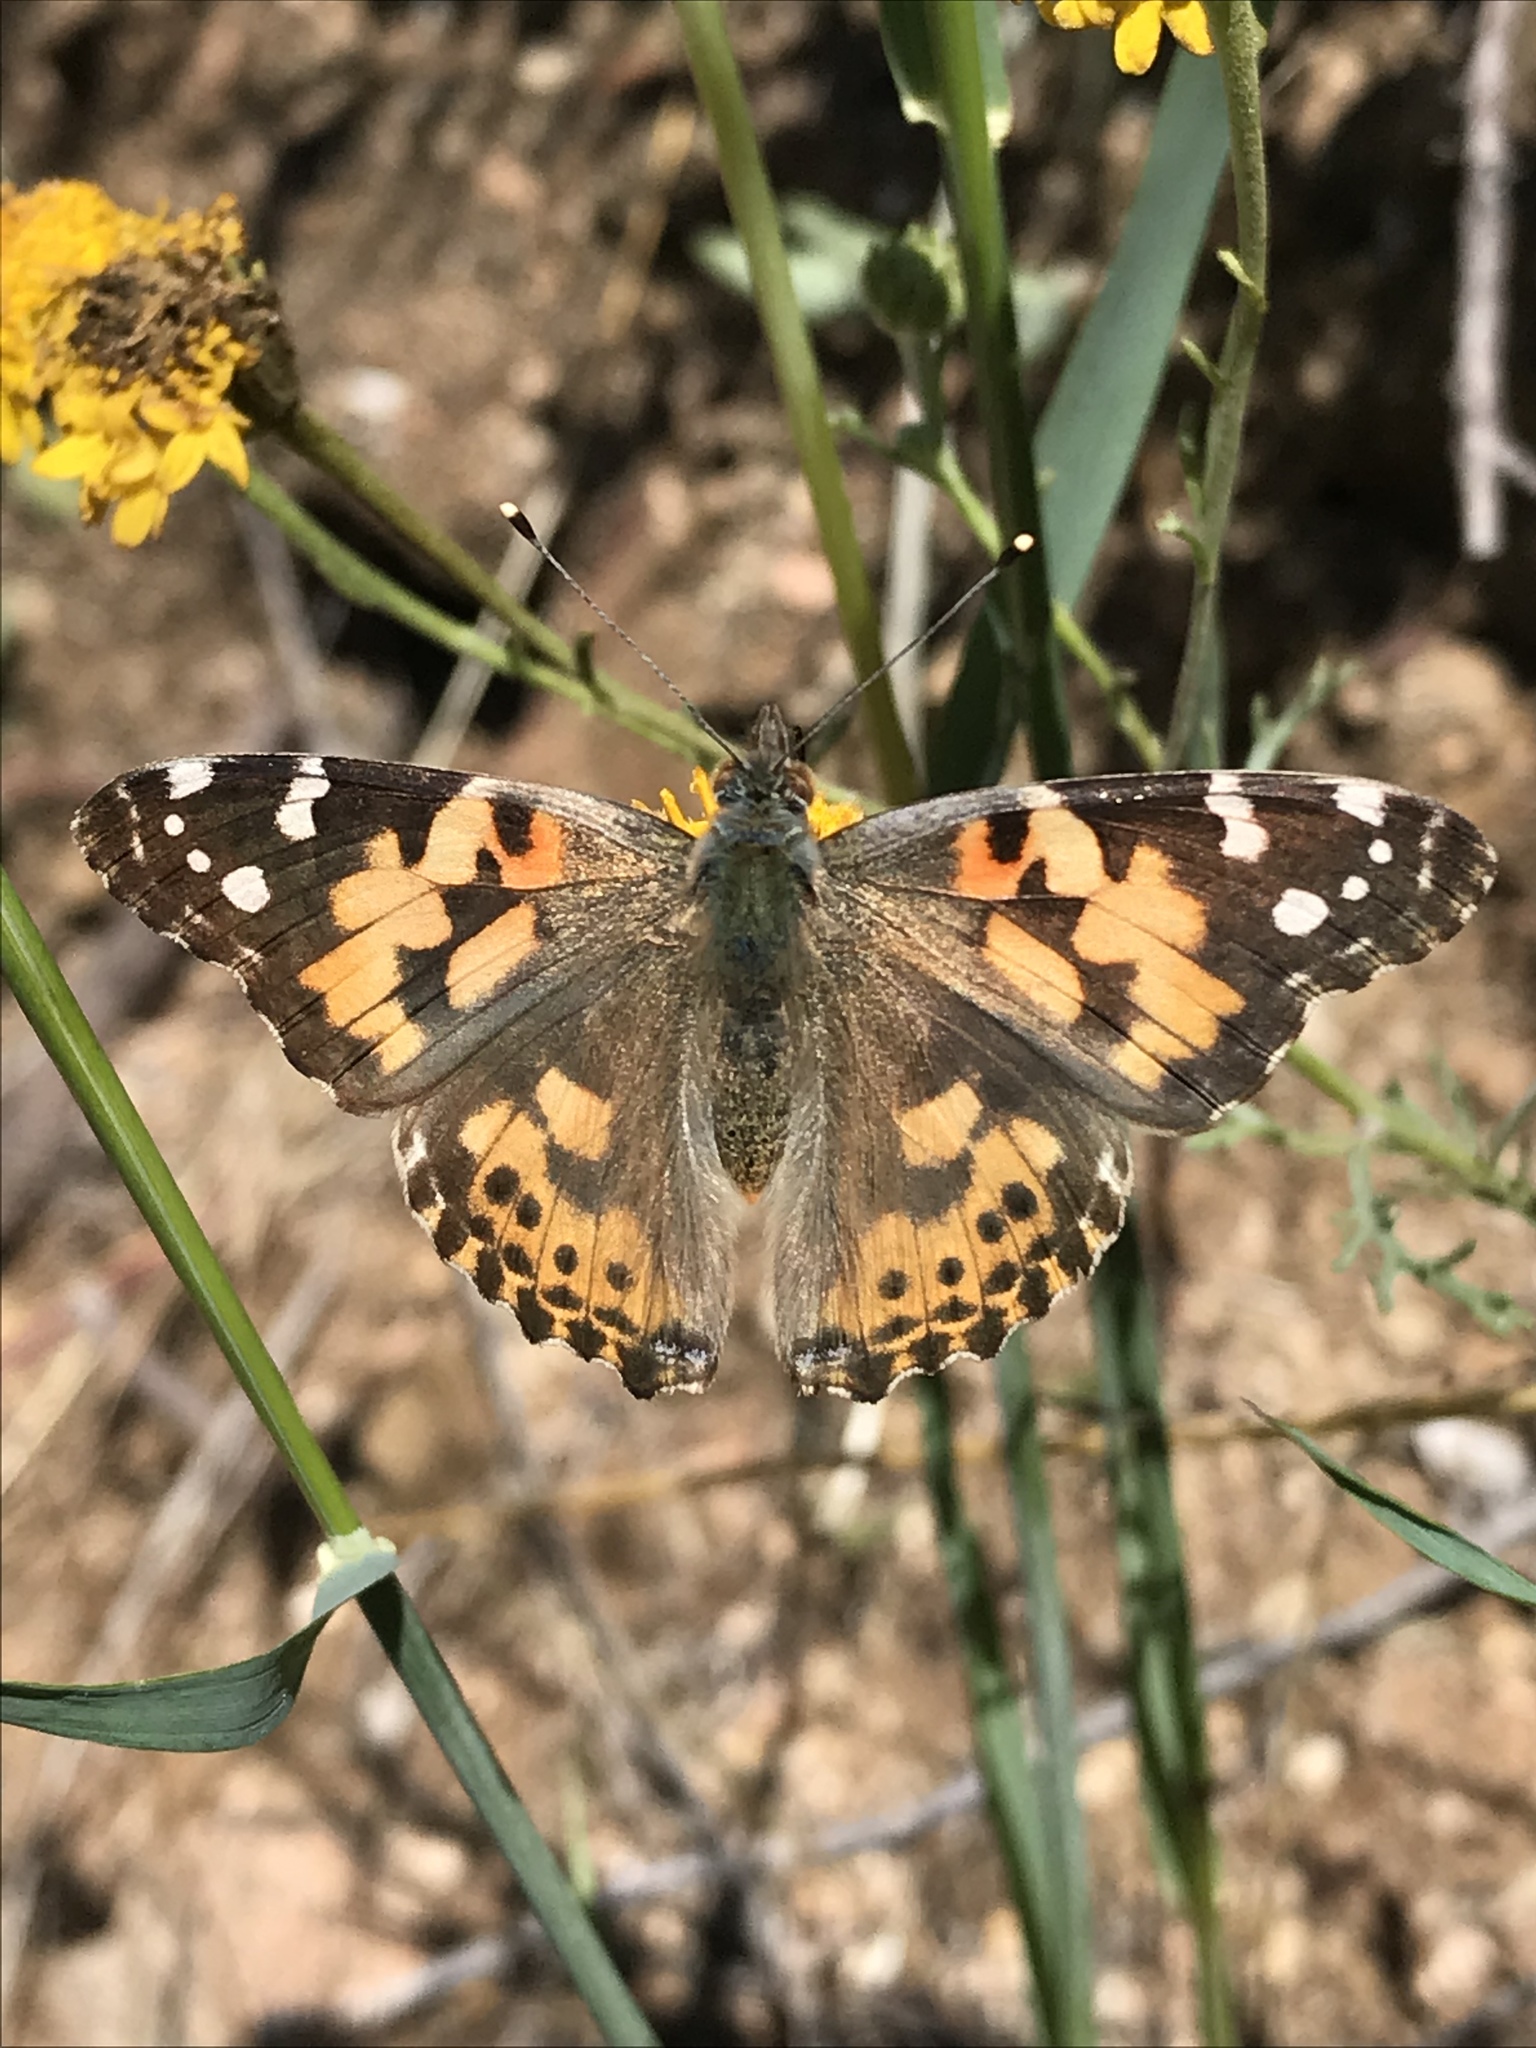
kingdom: Animalia
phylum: Arthropoda
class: Insecta
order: Lepidoptera
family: Nymphalidae
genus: Vanessa
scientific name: Vanessa cardui
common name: Painted lady
